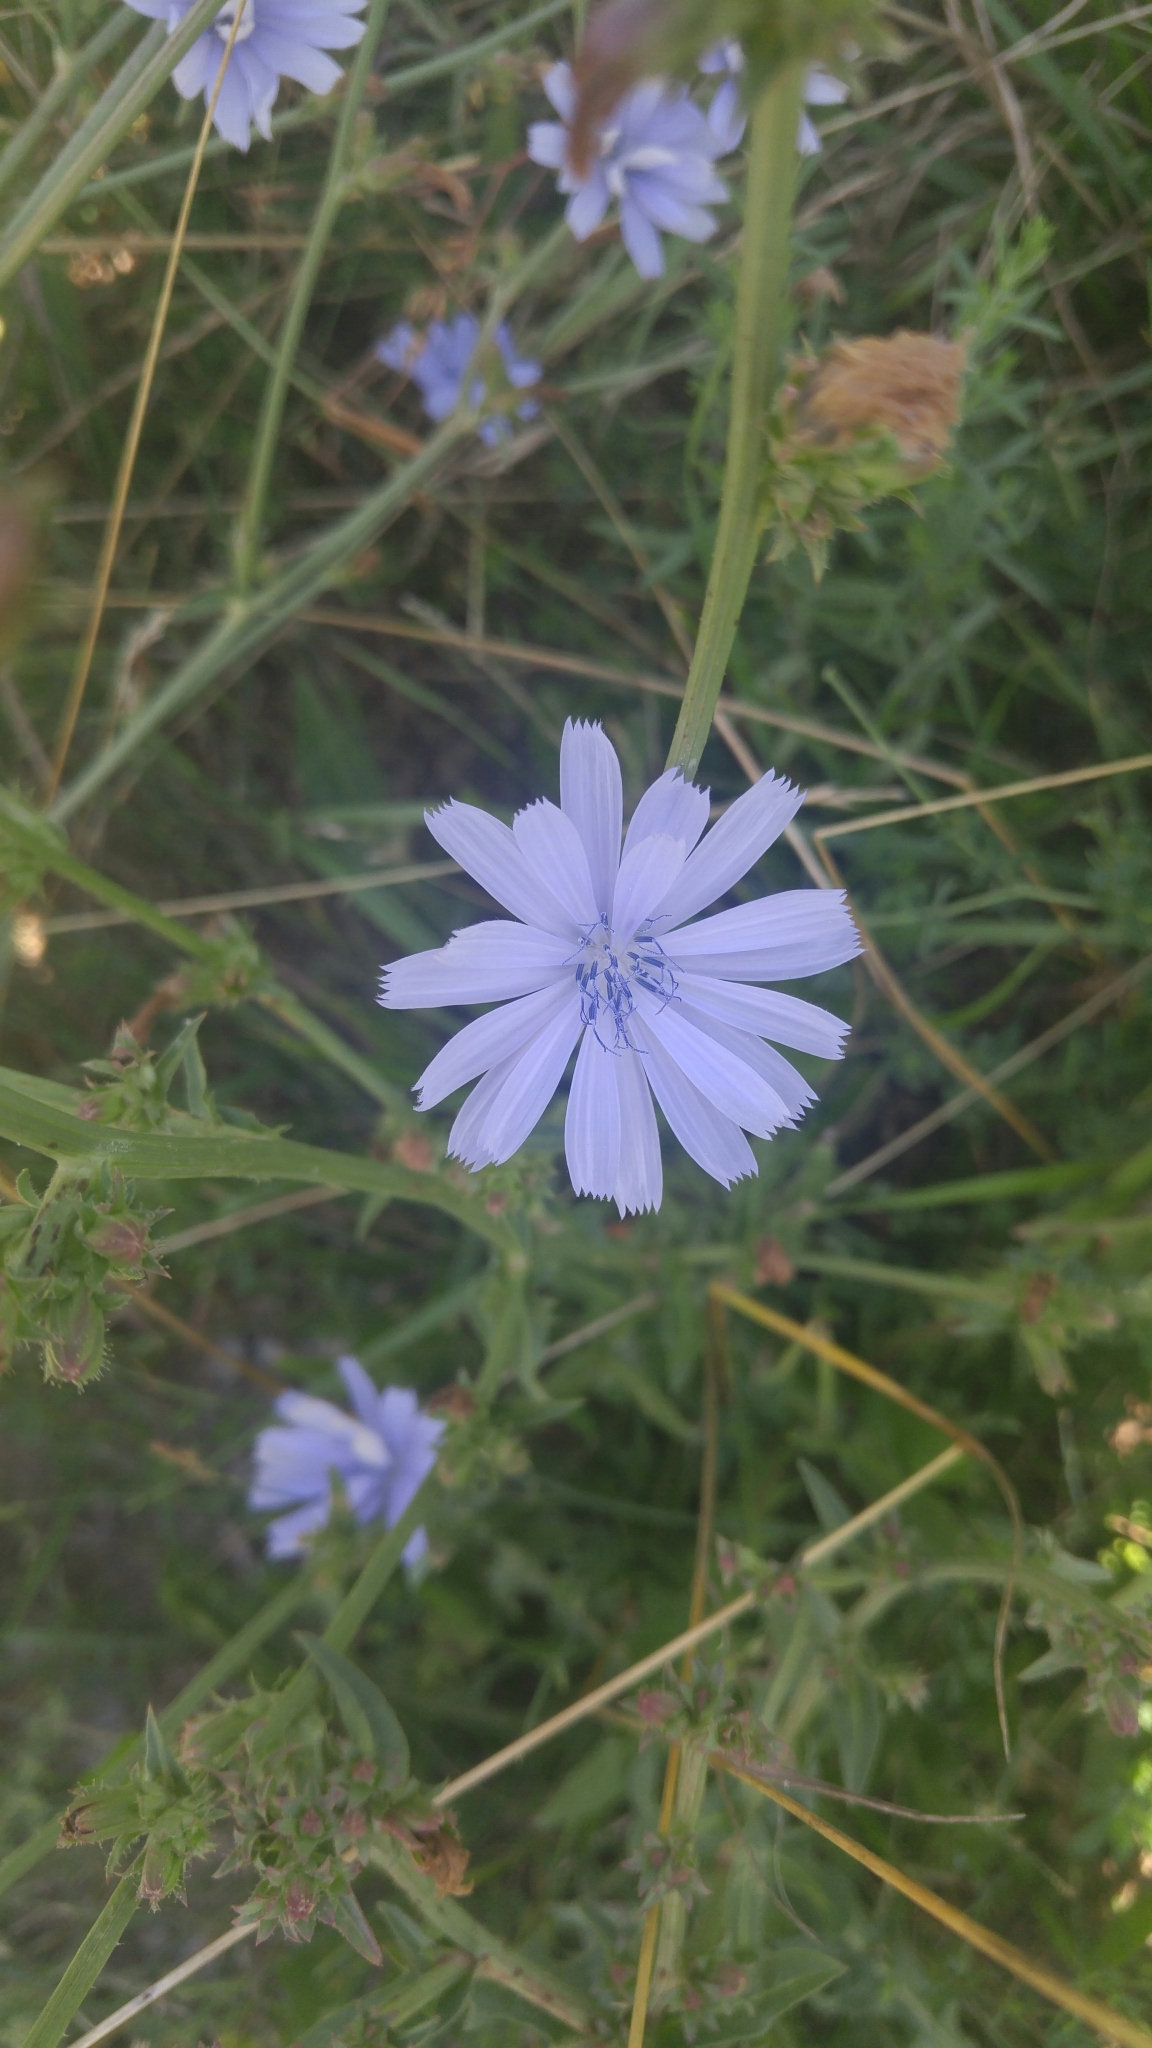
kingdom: Plantae
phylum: Tracheophyta
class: Magnoliopsida
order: Asterales
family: Asteraceae
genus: Cichorium
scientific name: Cichorium intybus
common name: Chicory
